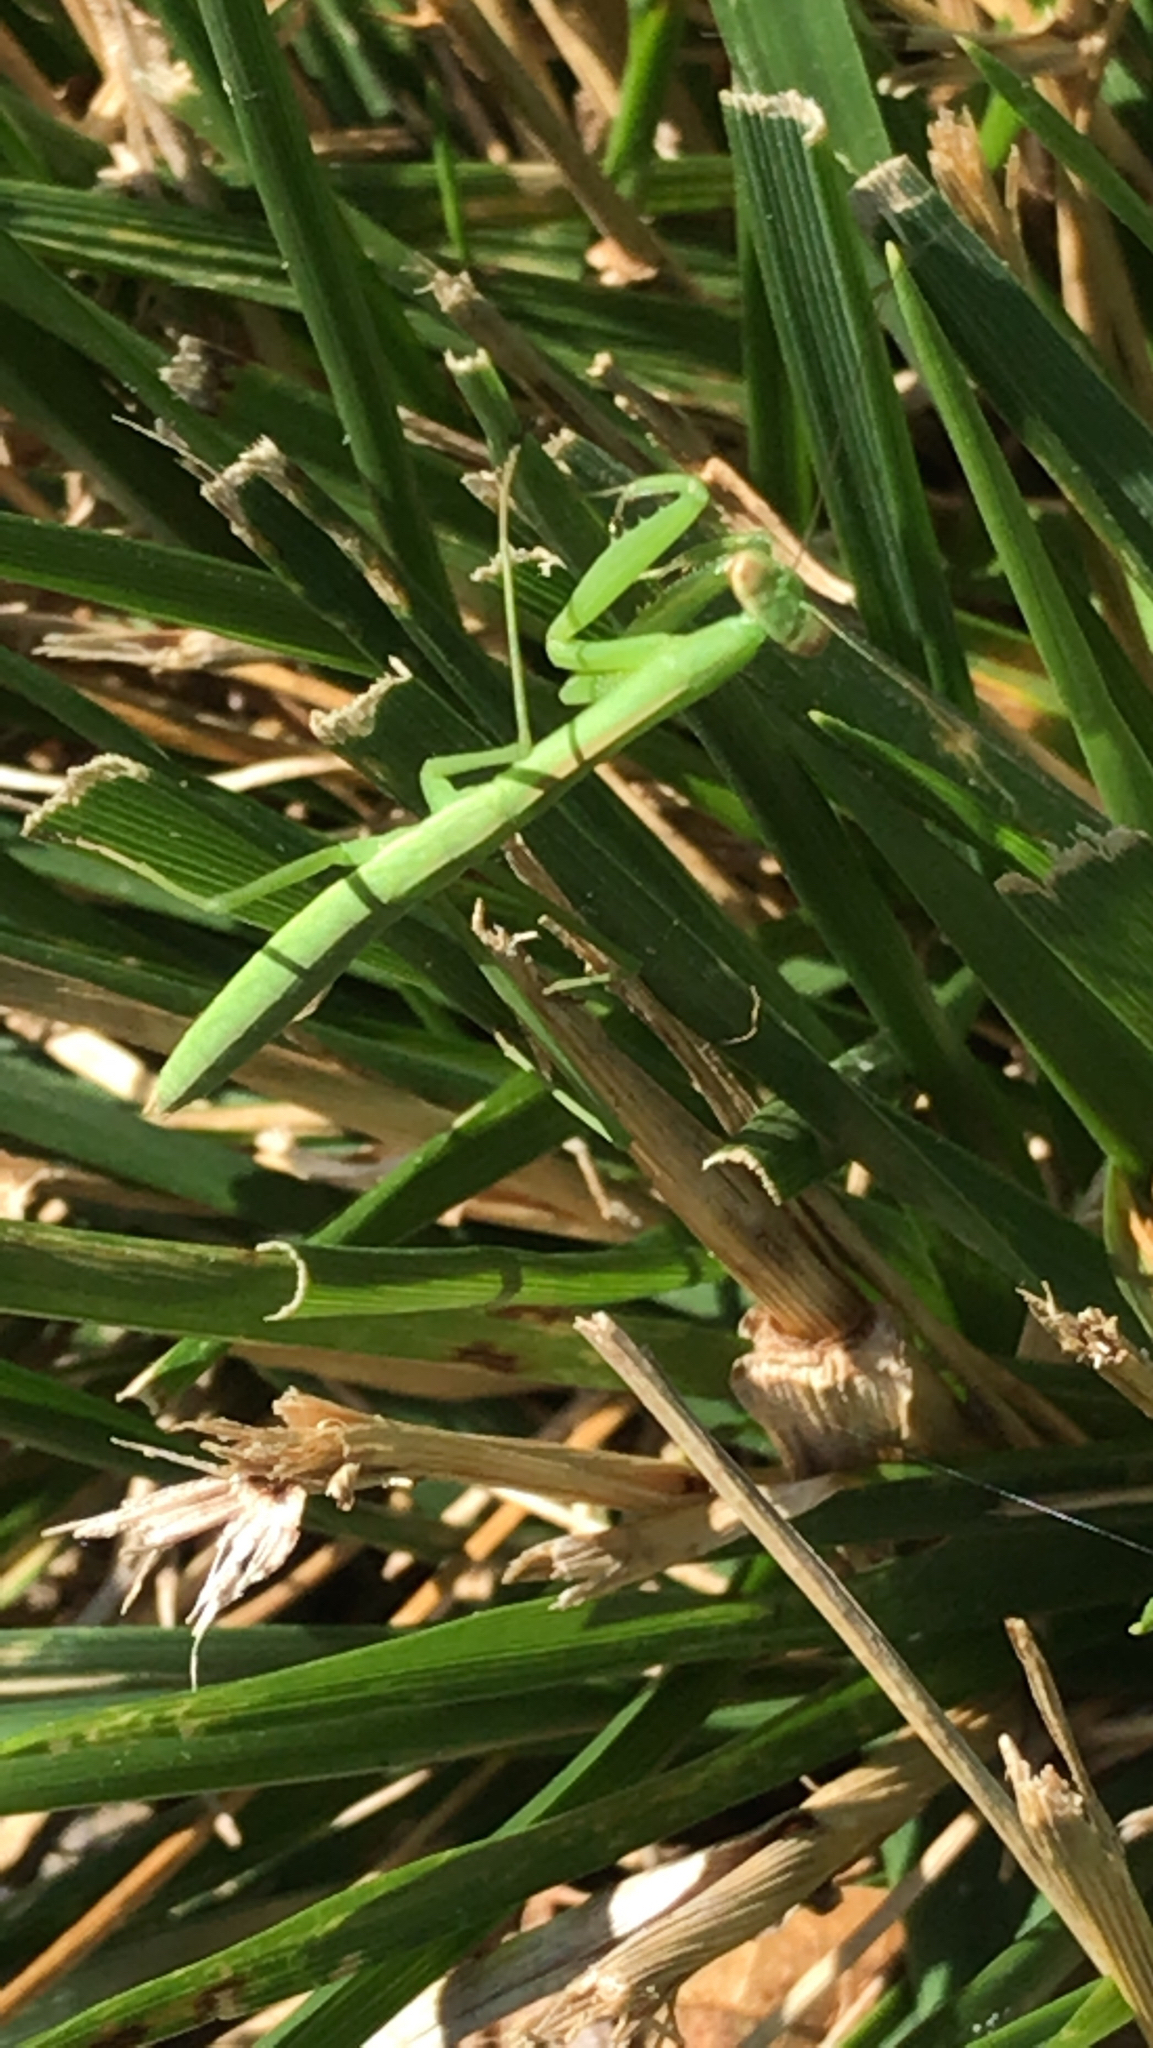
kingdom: Animalia
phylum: Arthropoda
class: Insecta
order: Mantodea
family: Mantidae
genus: Tenodera
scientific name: Tenodera sinensis
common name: Chinese mantis
